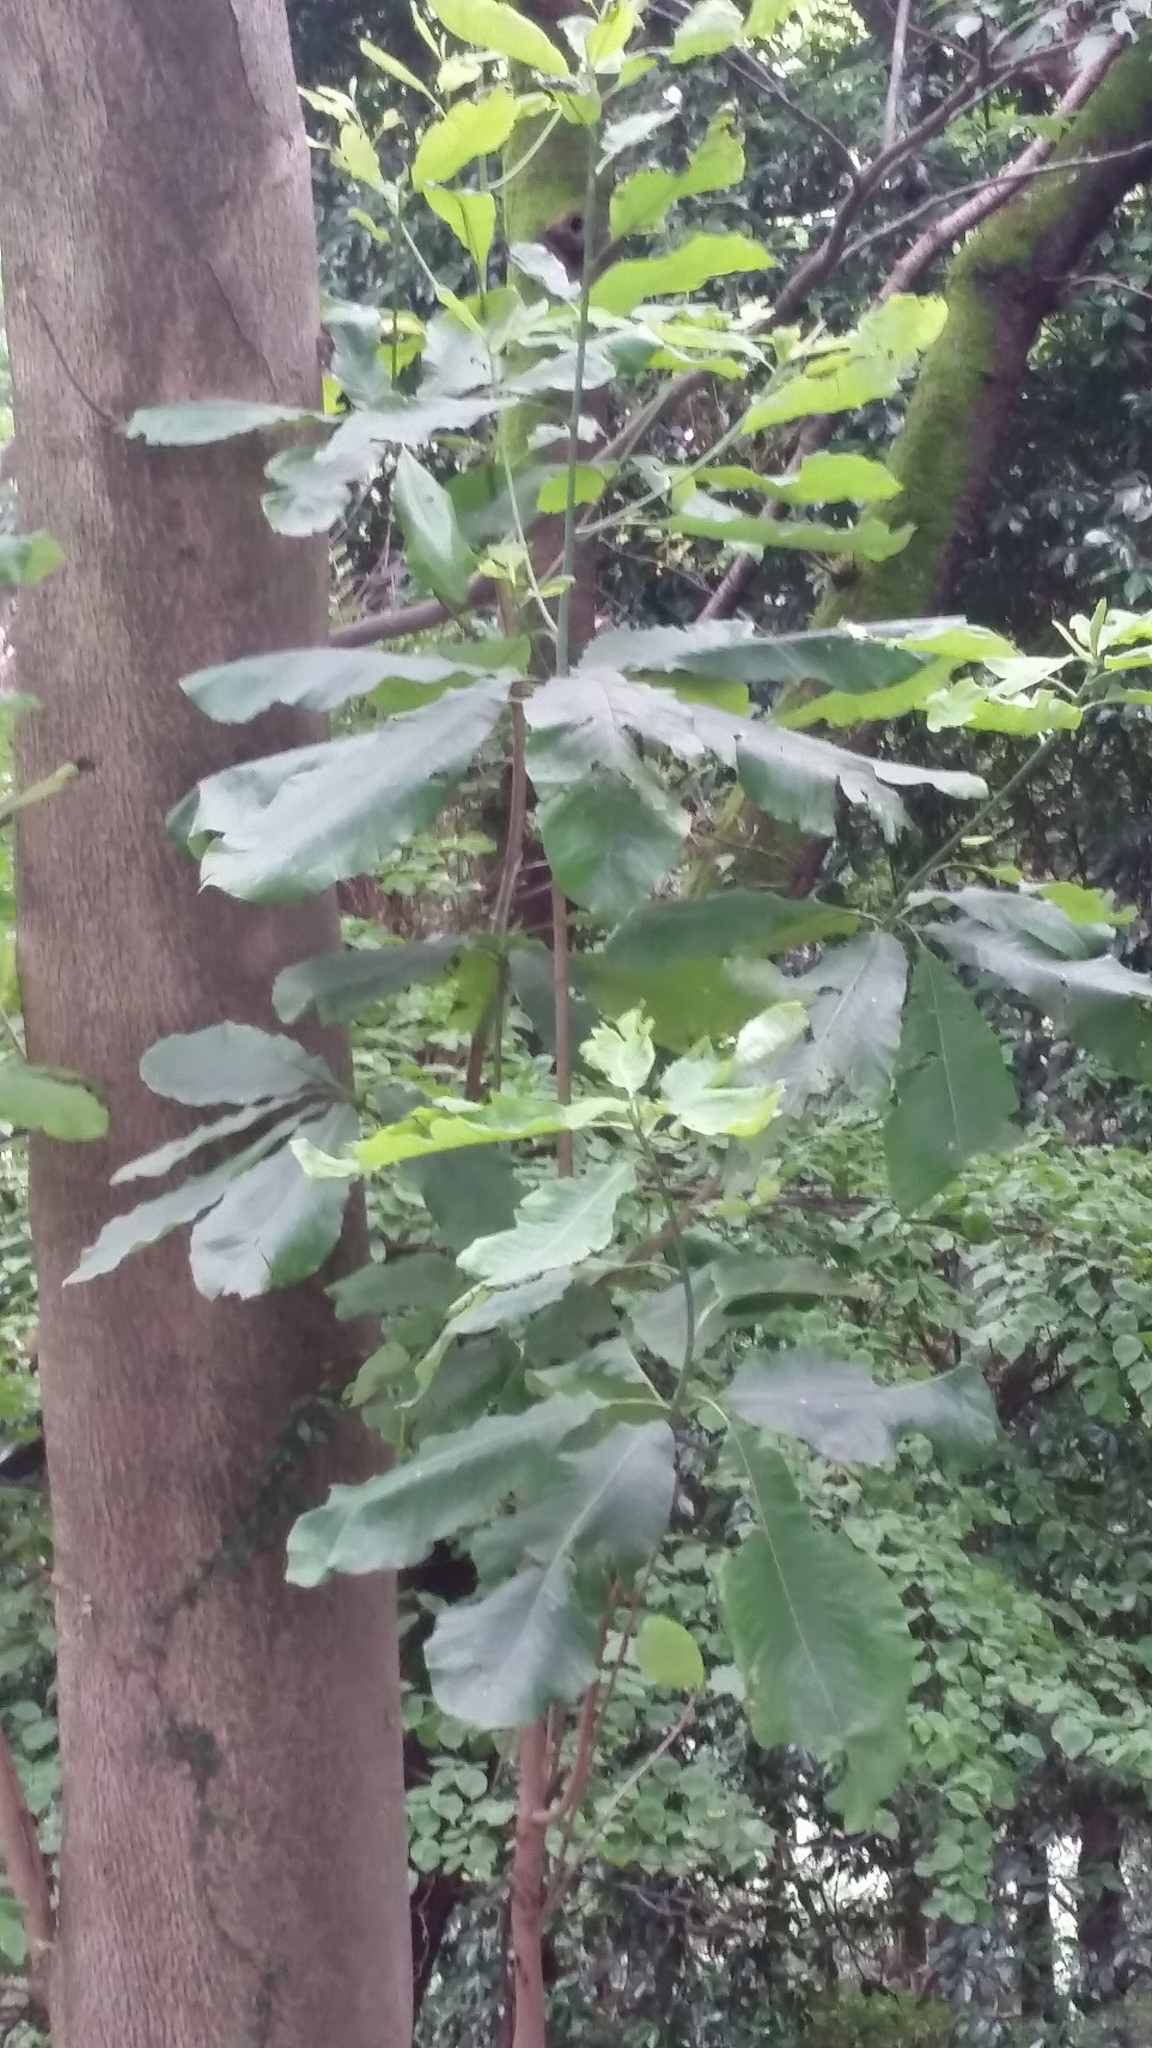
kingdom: Plantae
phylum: Tracheophyta
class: Magnoliopsida
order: Magnoliales
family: Magnoliaceae
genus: Magnolia
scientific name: Magnolia obovata
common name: Japanese whitebark magnolia
